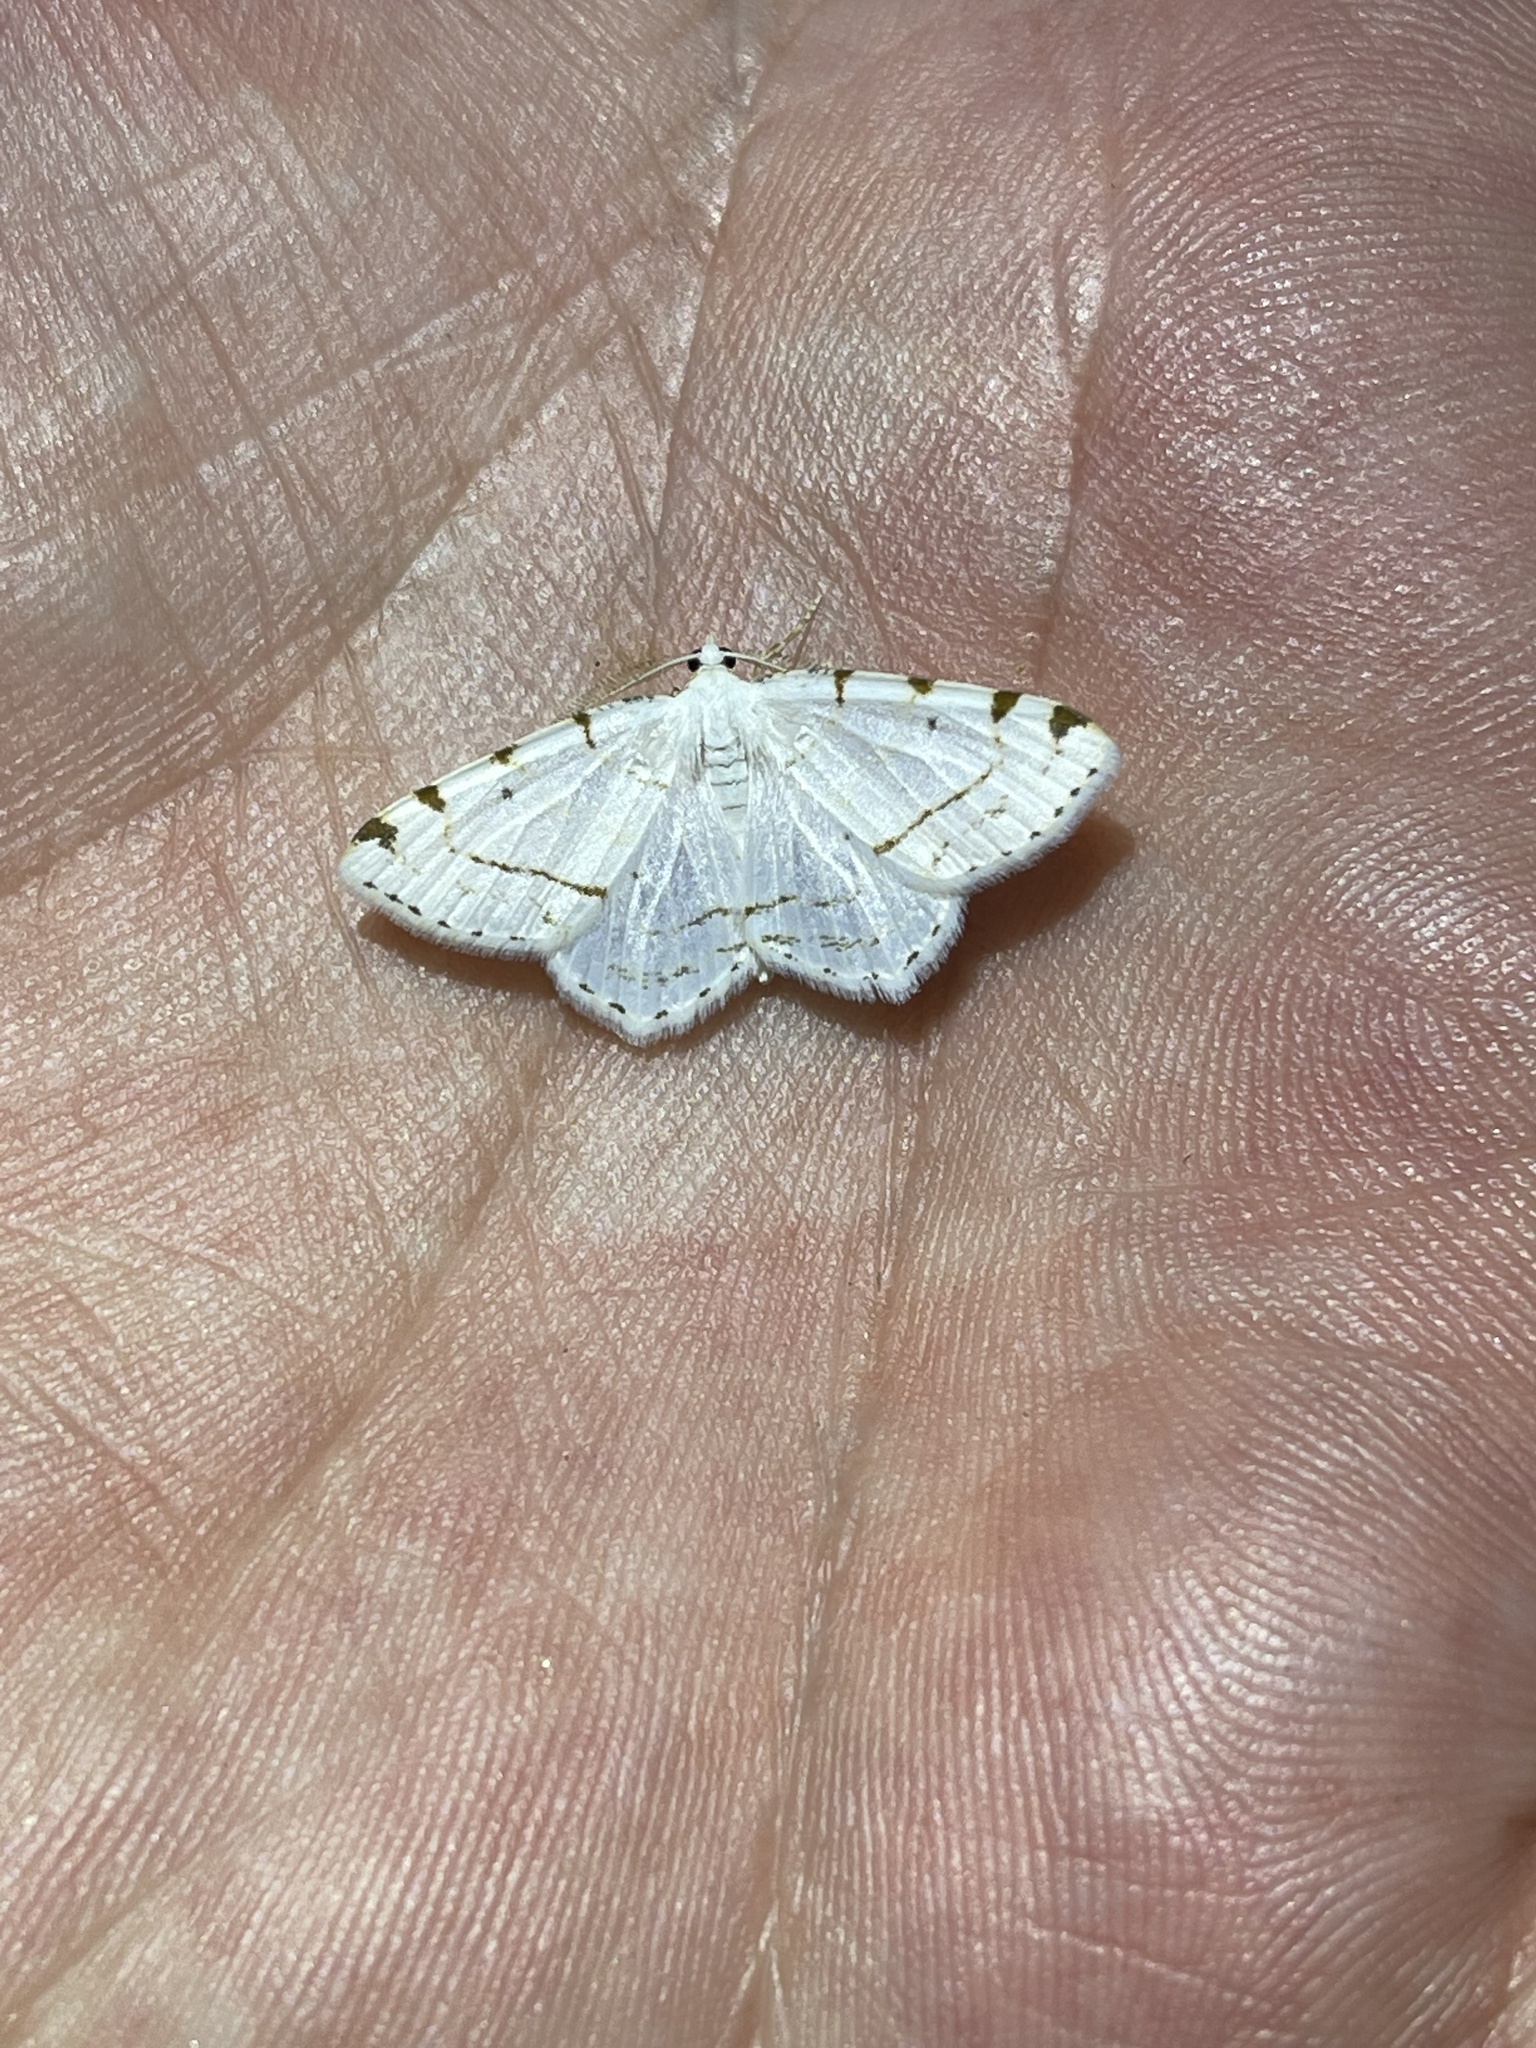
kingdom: Animalia
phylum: Arthropoda
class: Insecta
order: Lepidoptera
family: Geometridae
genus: Macaria
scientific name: Macaria pustularia
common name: Lesser maple spanworm moth
